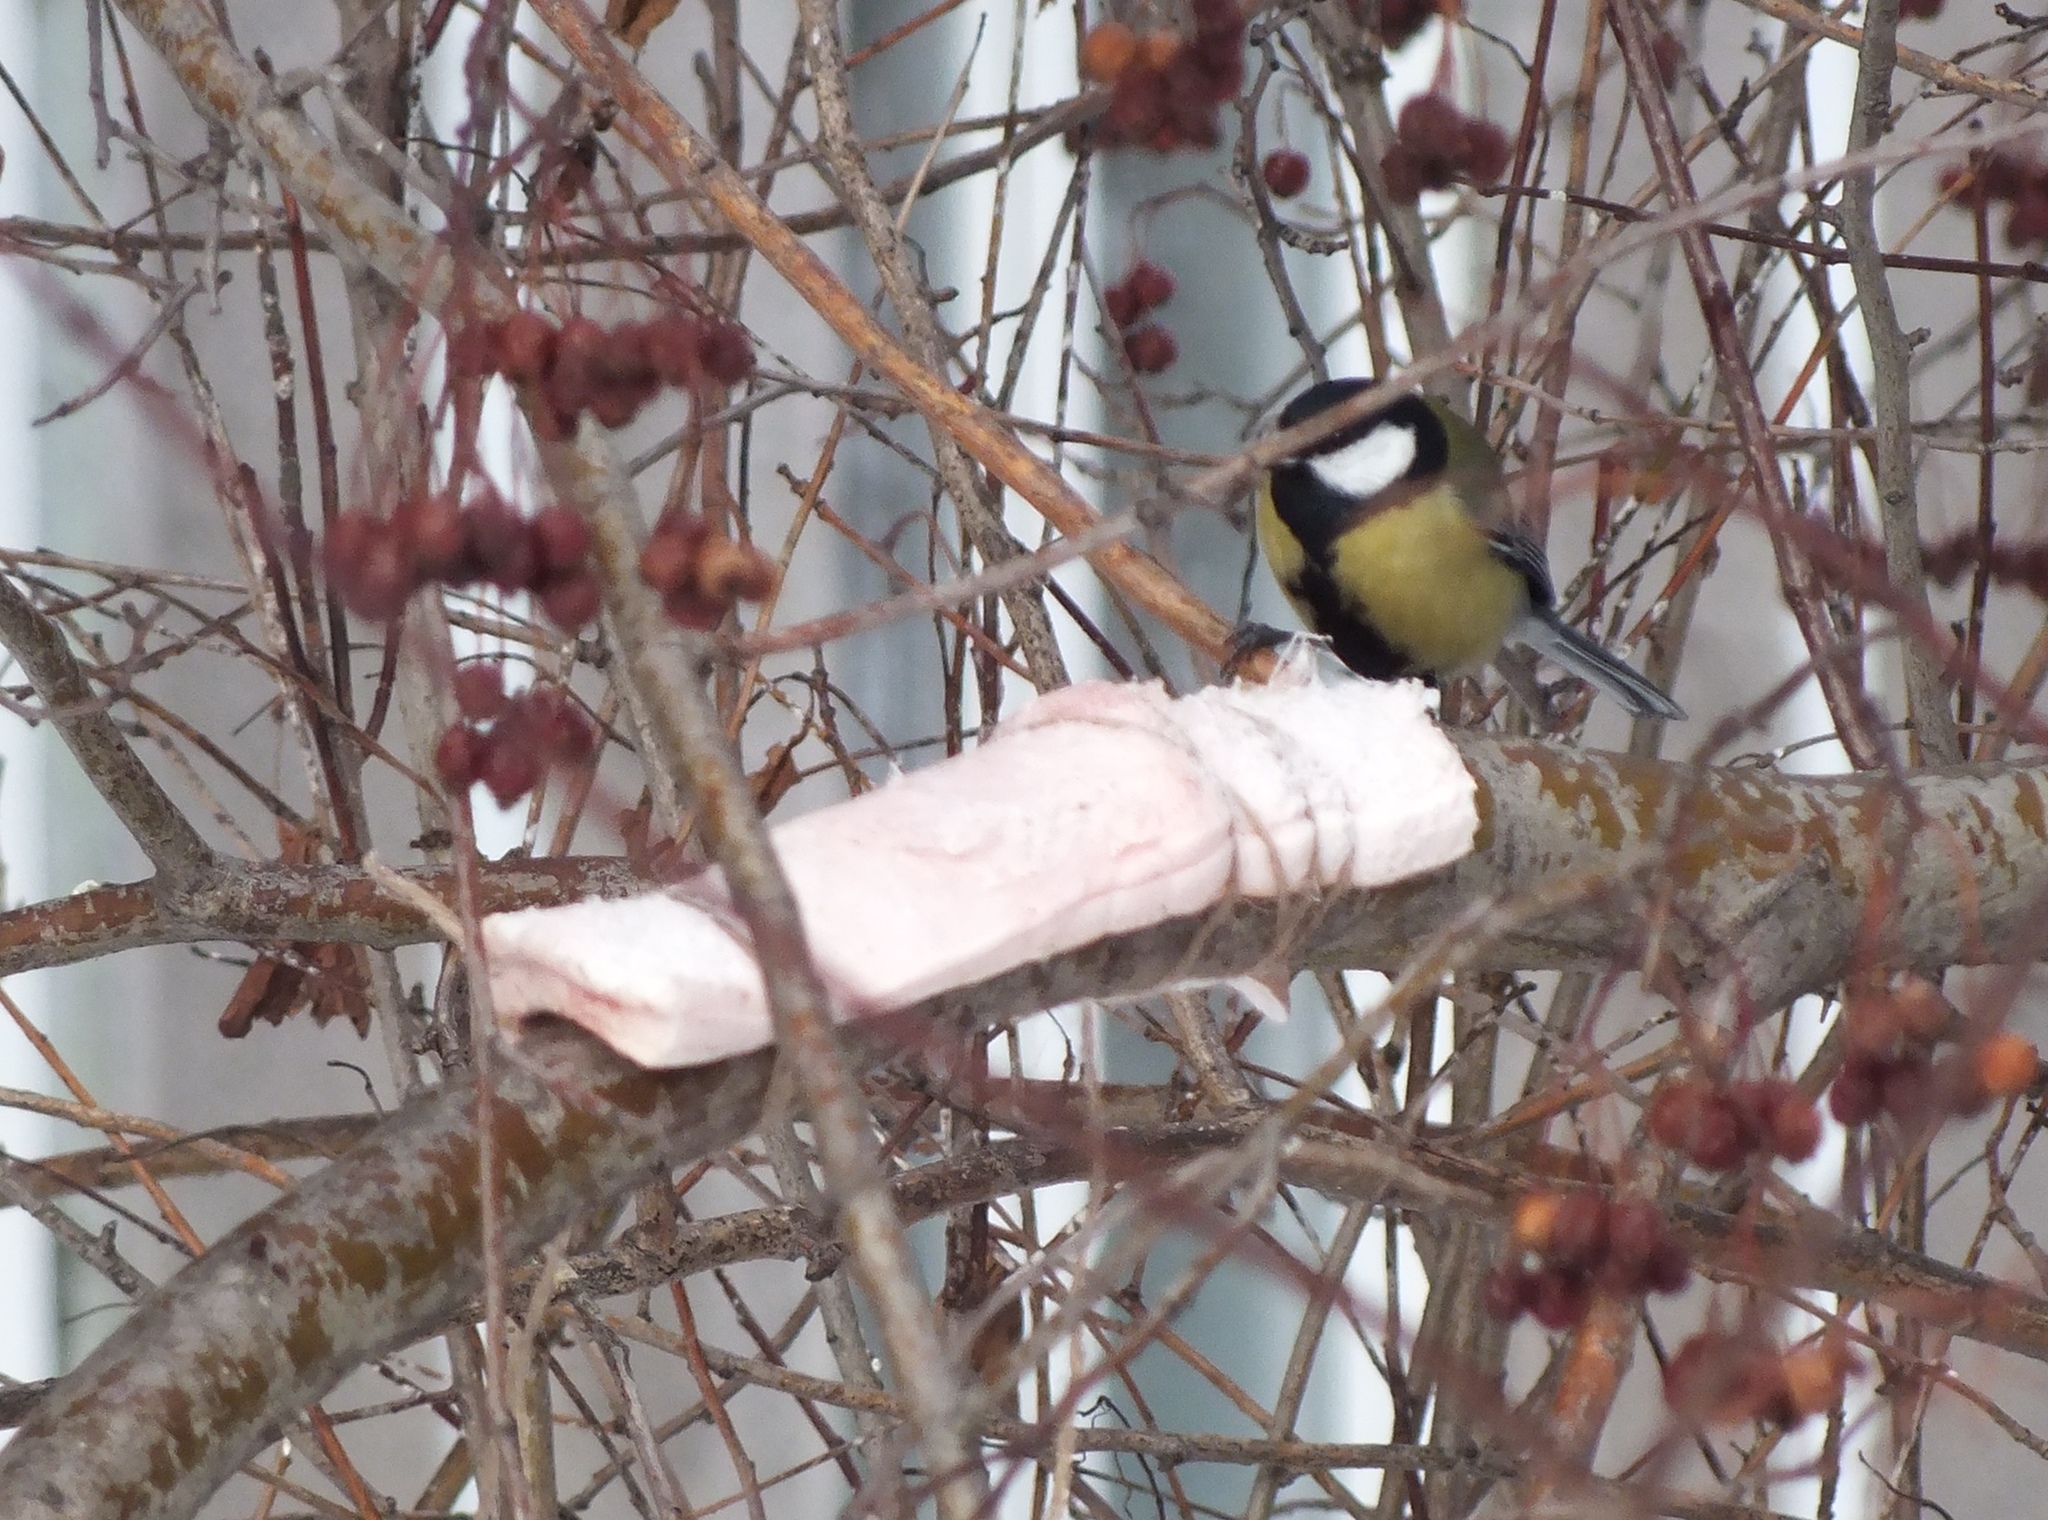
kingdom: Animalia
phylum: Chordata
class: Aves
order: Passeriformes
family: Paridae
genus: Parus
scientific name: Parus major
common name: Great tit
